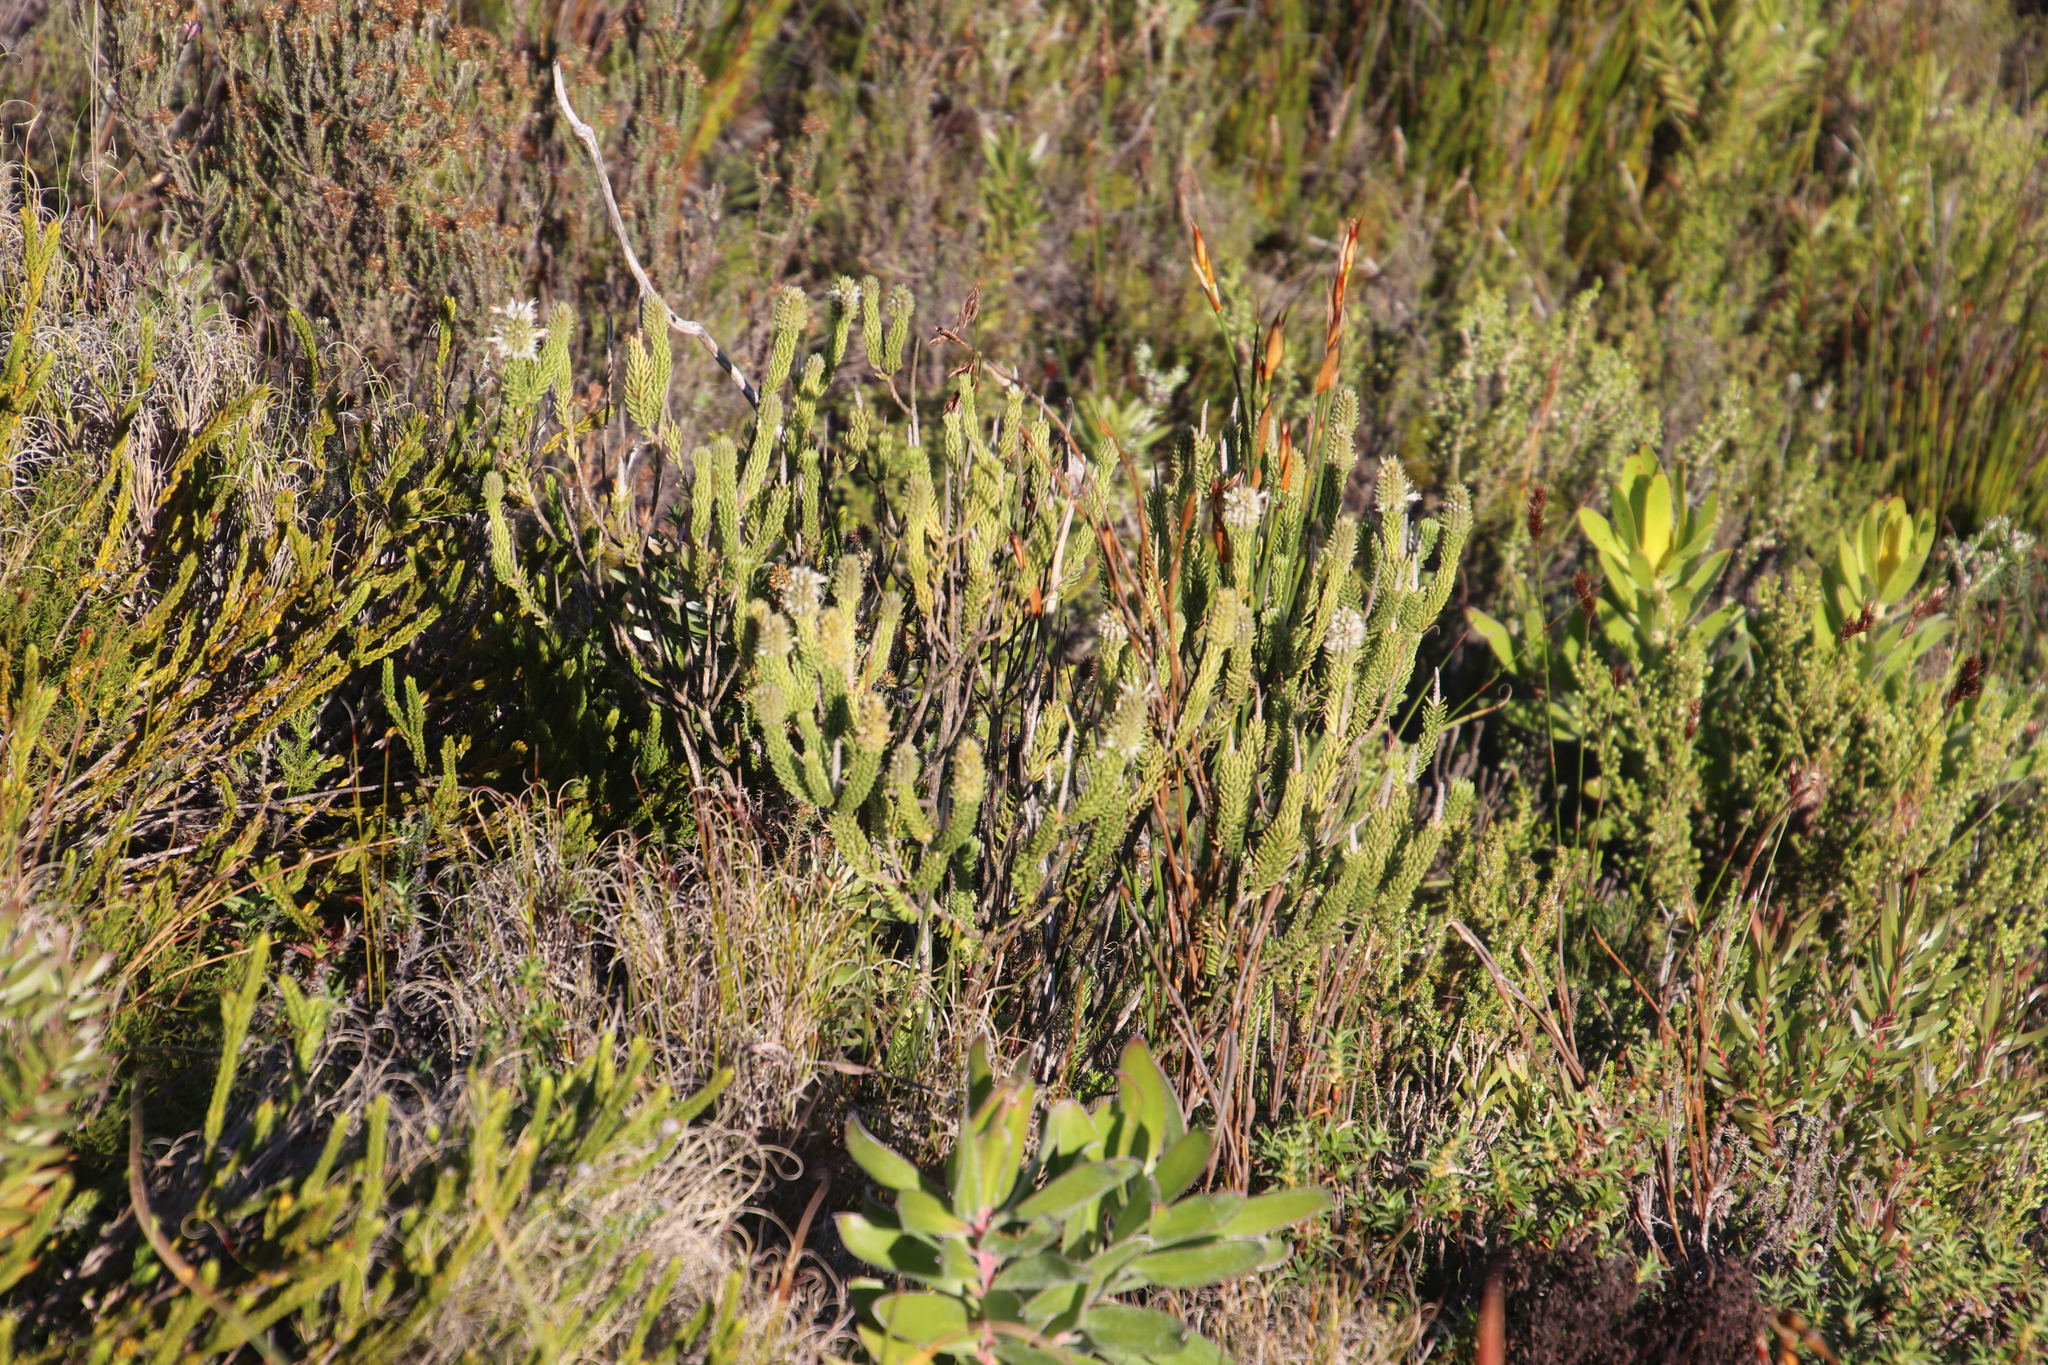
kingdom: Plantae
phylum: Tracheophyta
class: Magnoliopsida
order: Lamiales
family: Stilbaceae
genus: Stilbe
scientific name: Stilbe vestita
